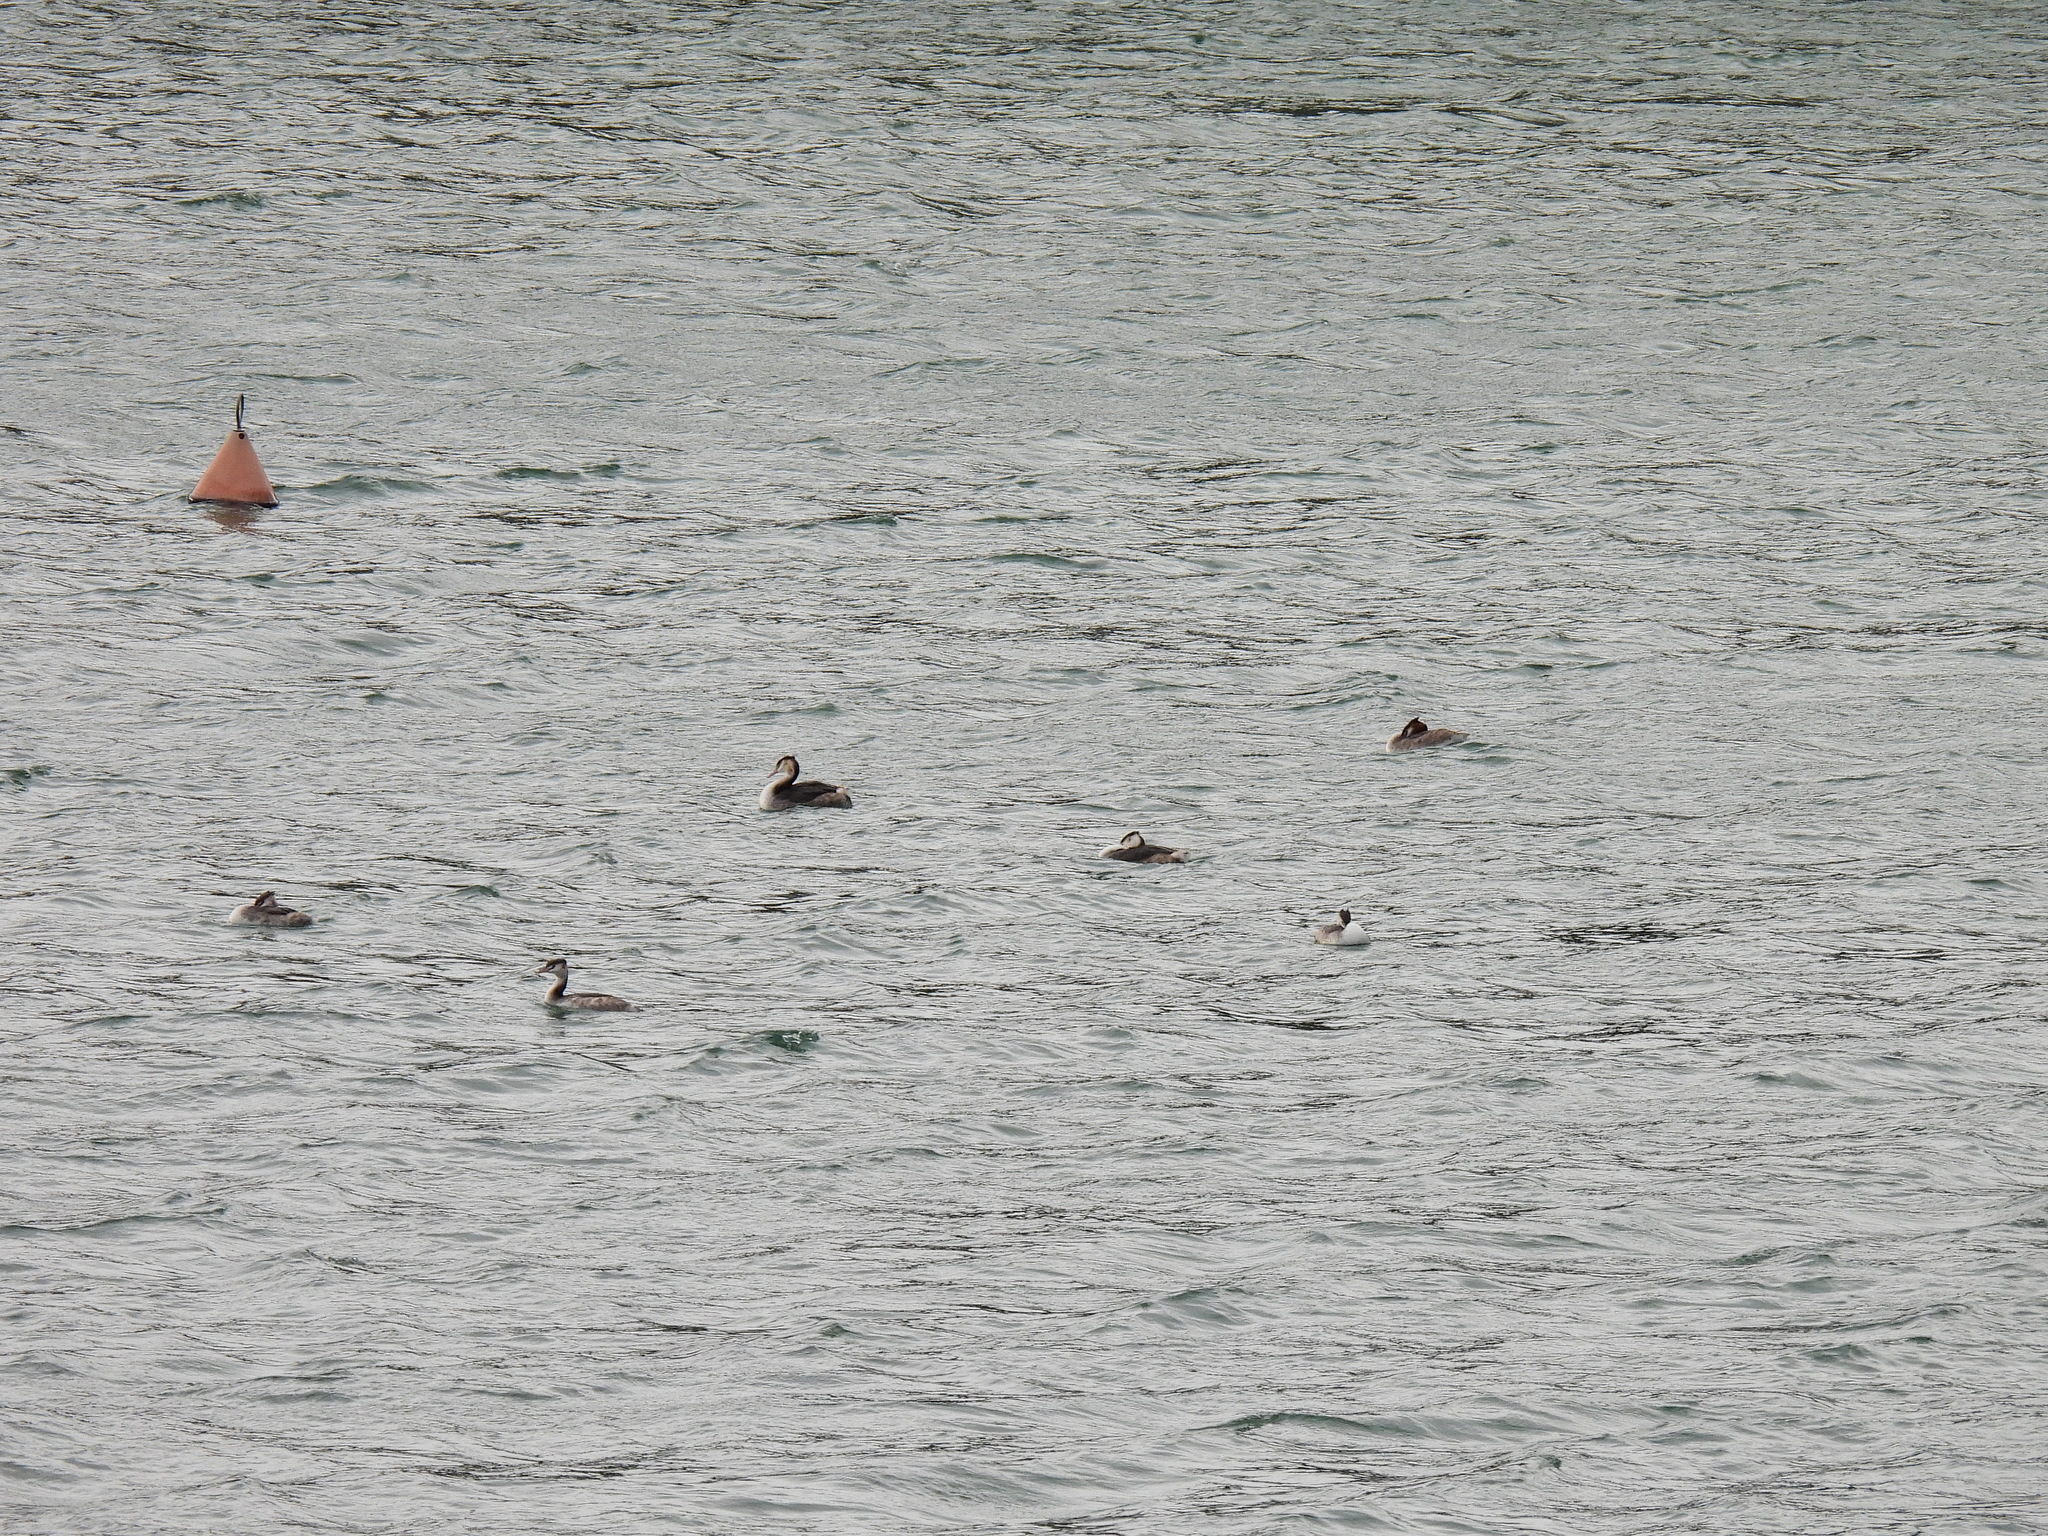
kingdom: Animalia
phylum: Chordata
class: Aves
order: Podicipediformes
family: Podicipedidae
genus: Podiceps
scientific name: Podiceps cristatus
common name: Great crested grebe
